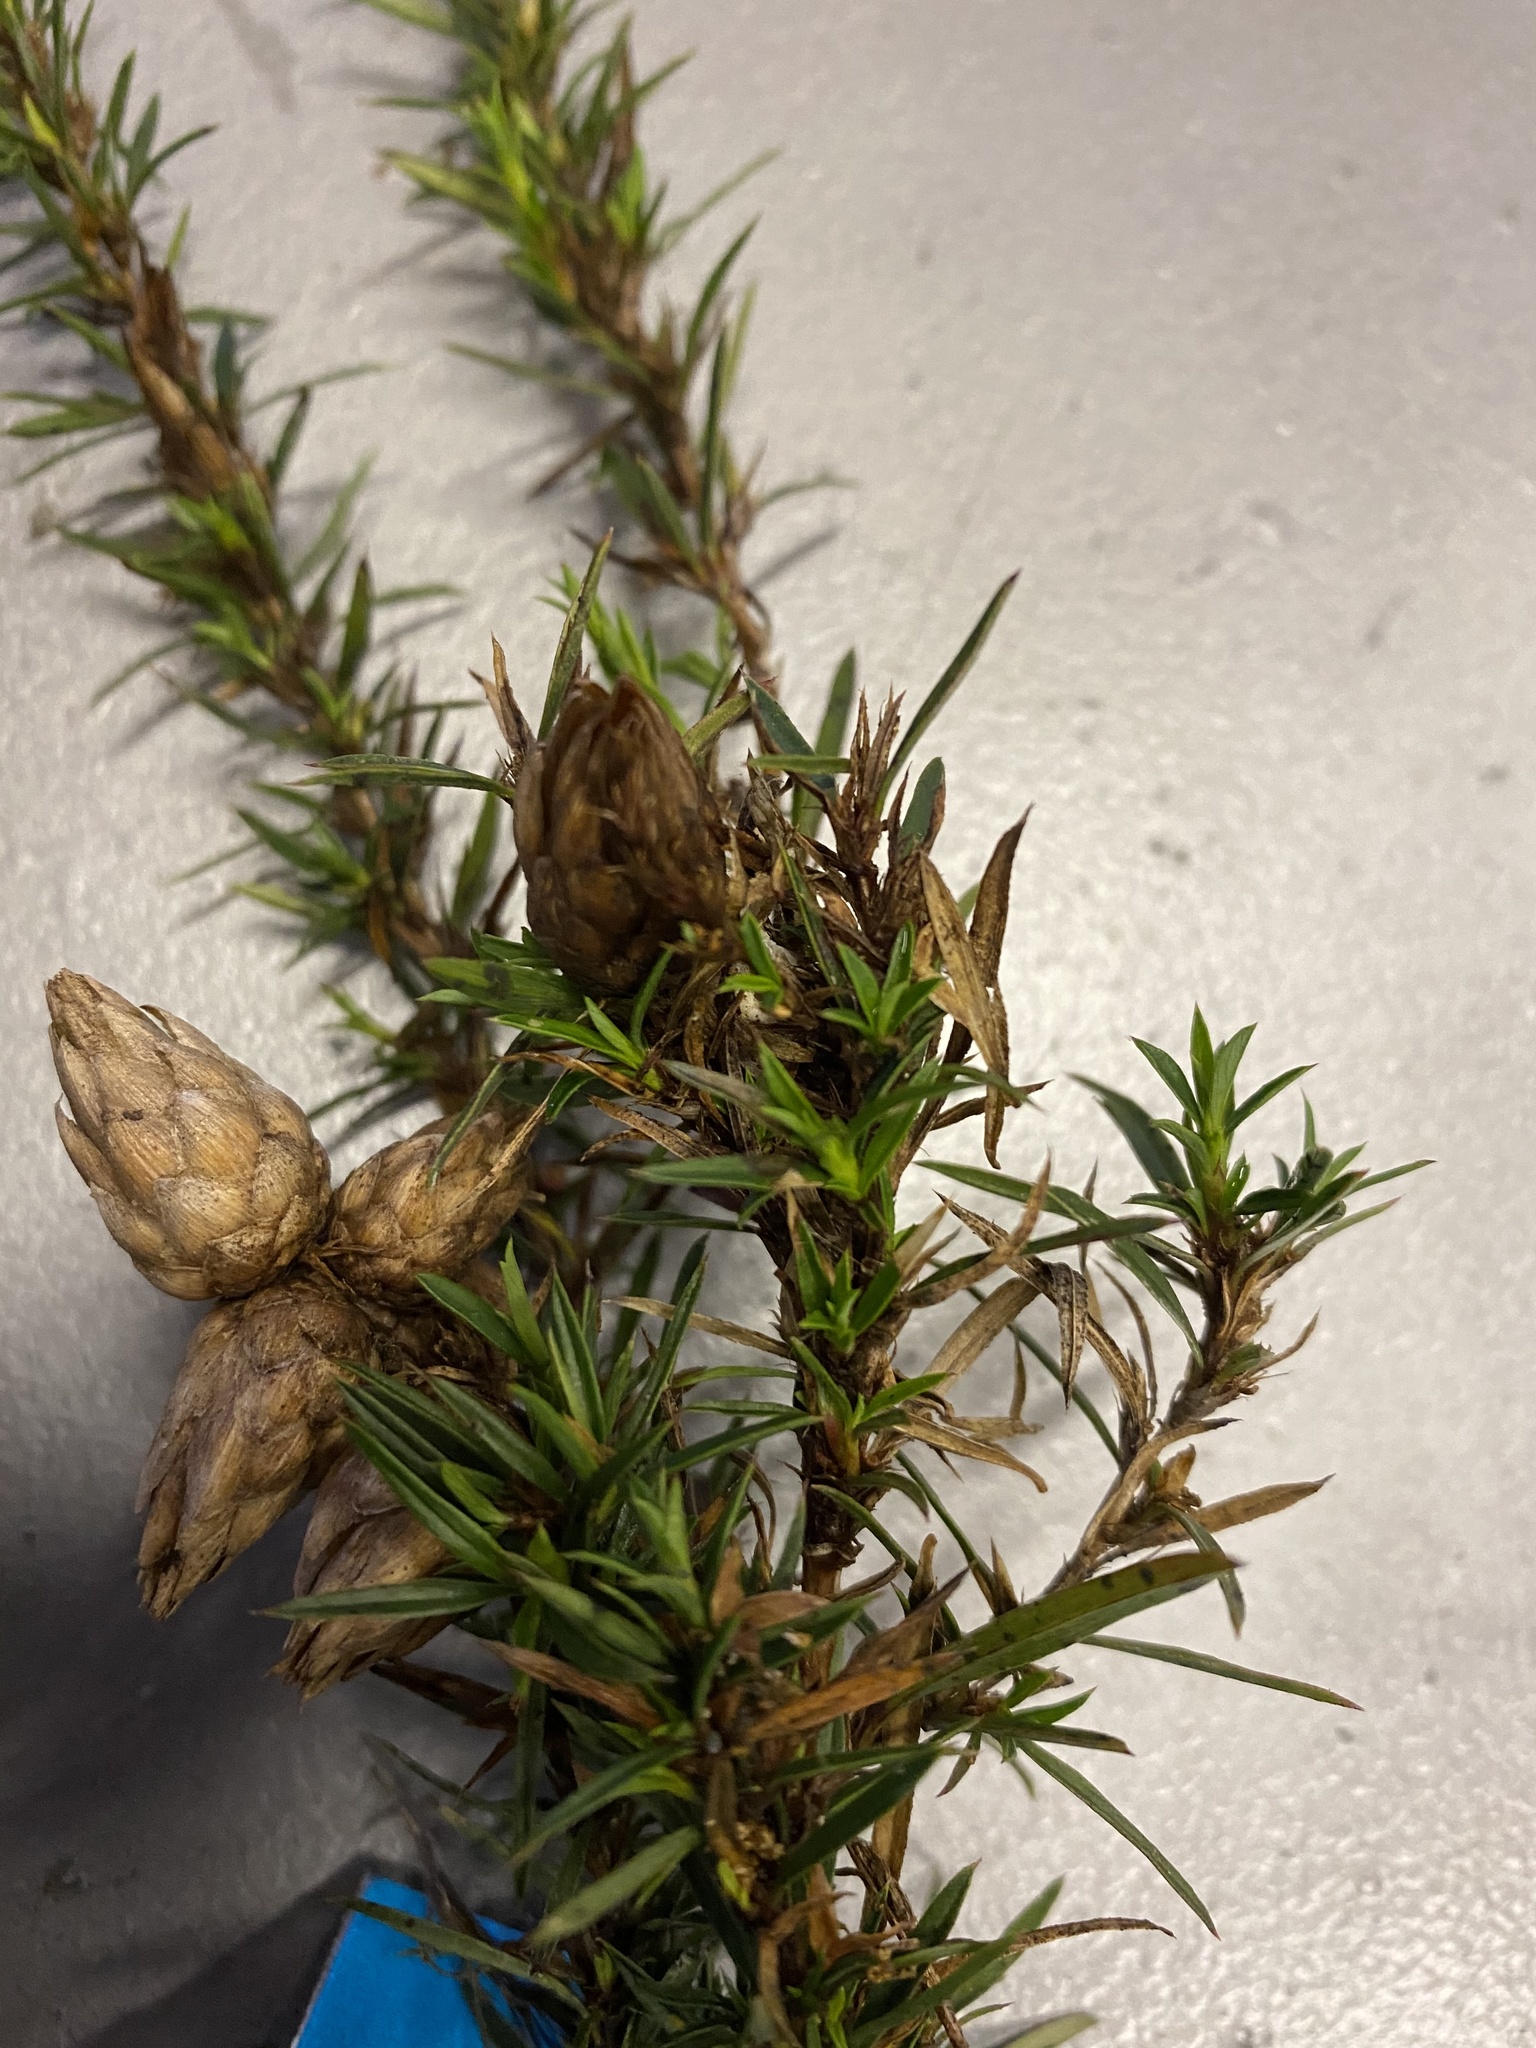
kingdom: Plantae
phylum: Tracheophyta
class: Magnoliopsida
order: Rosales
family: Rosaceae
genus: Cliffortia
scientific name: Cliffortia strobilifera
